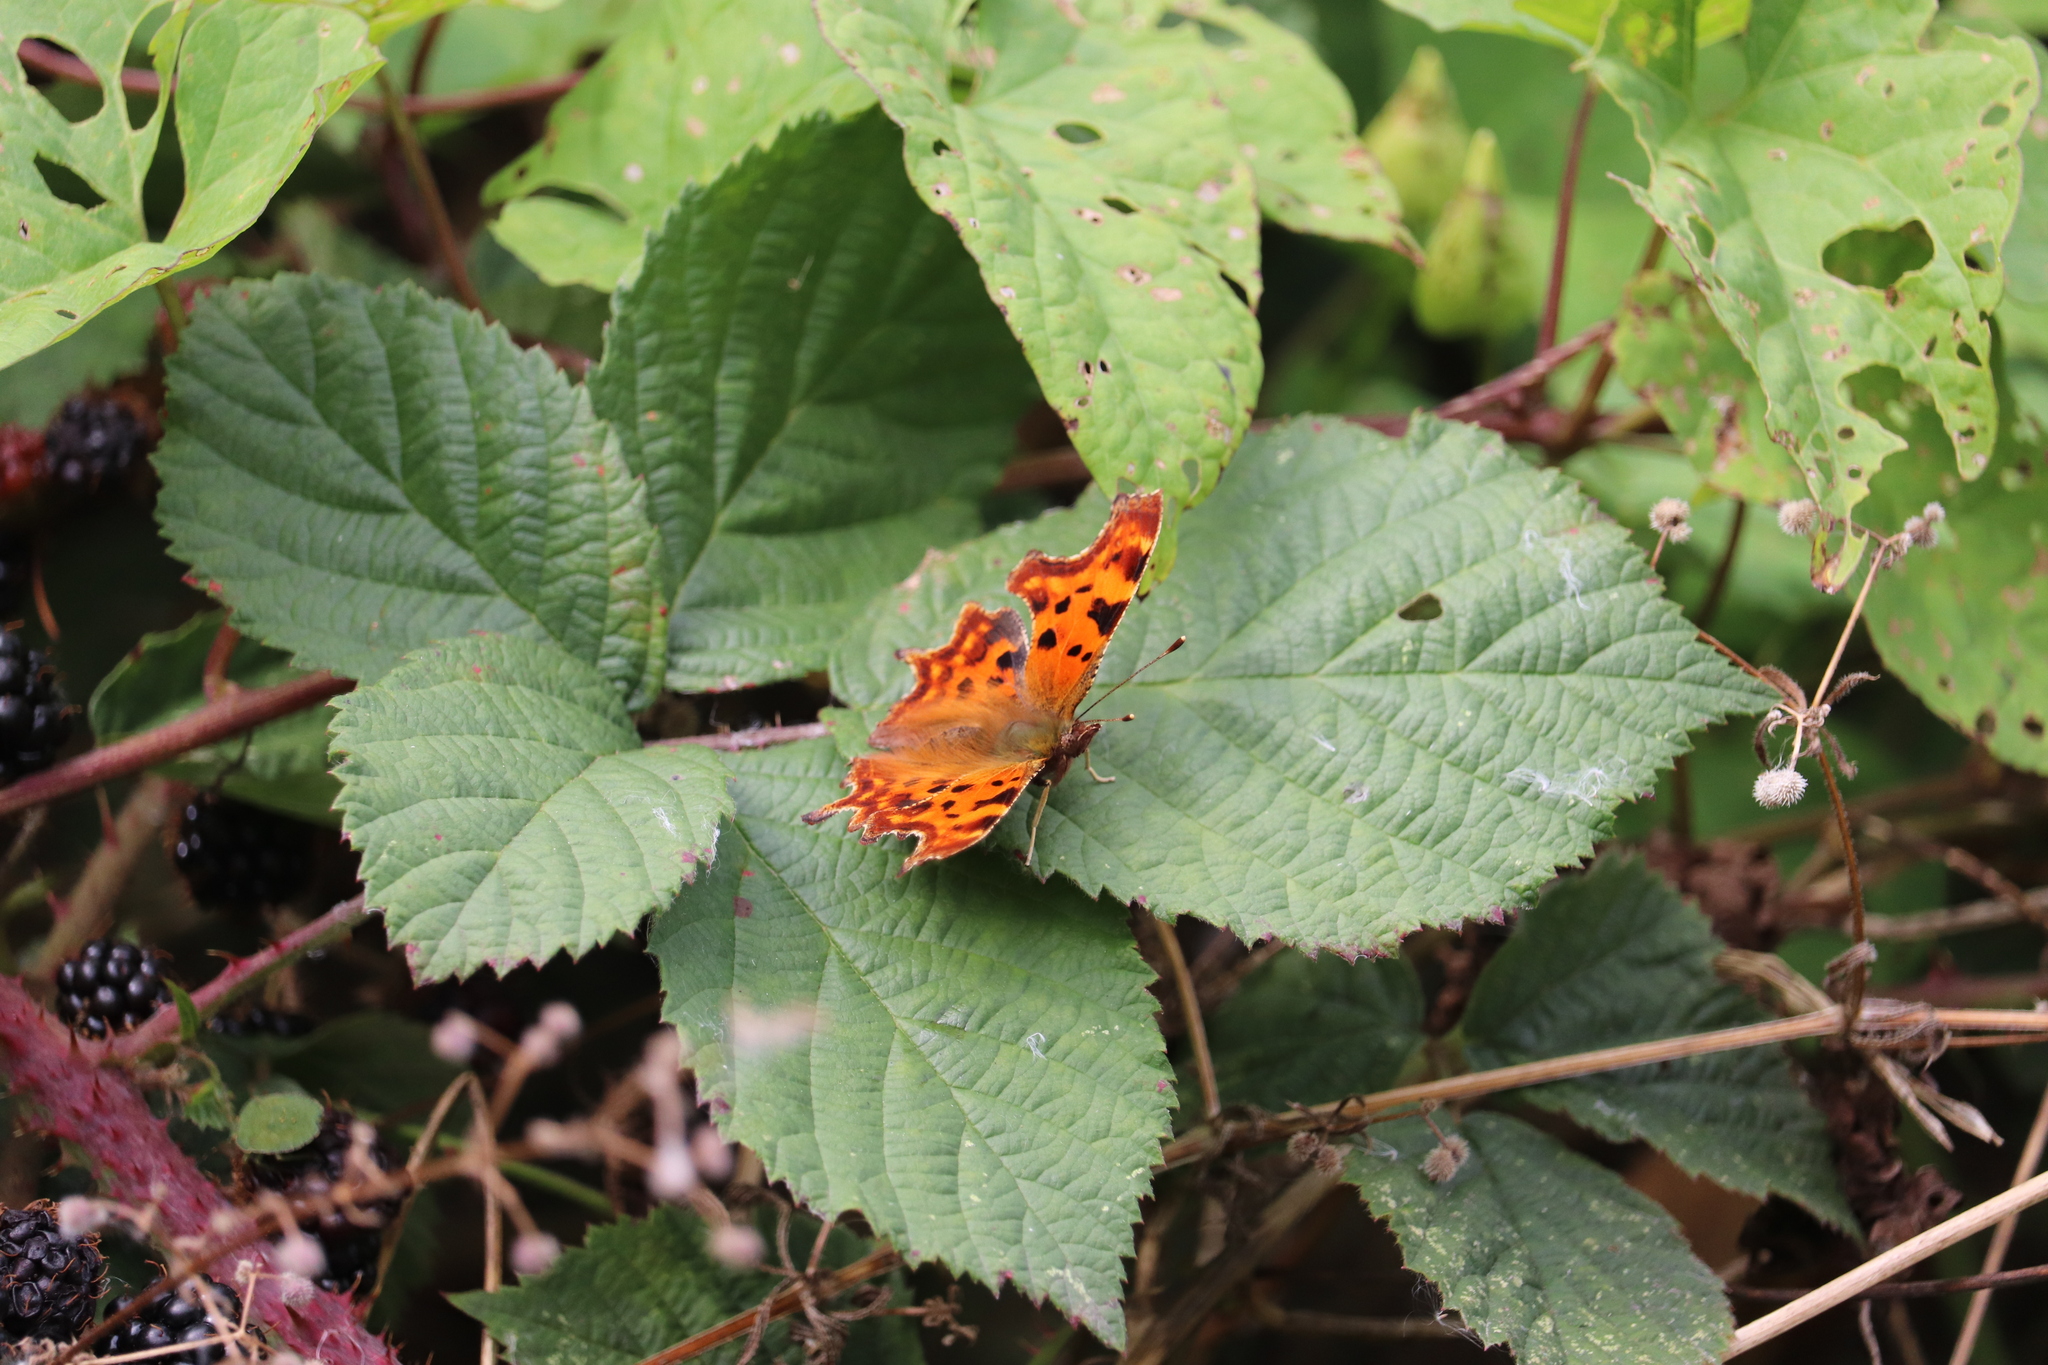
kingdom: Animalia
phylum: Arthropoda
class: Insecta
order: Lepidoptera
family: Nymphalidae
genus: Polygonia
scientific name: Polygonia c-album
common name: Comma
